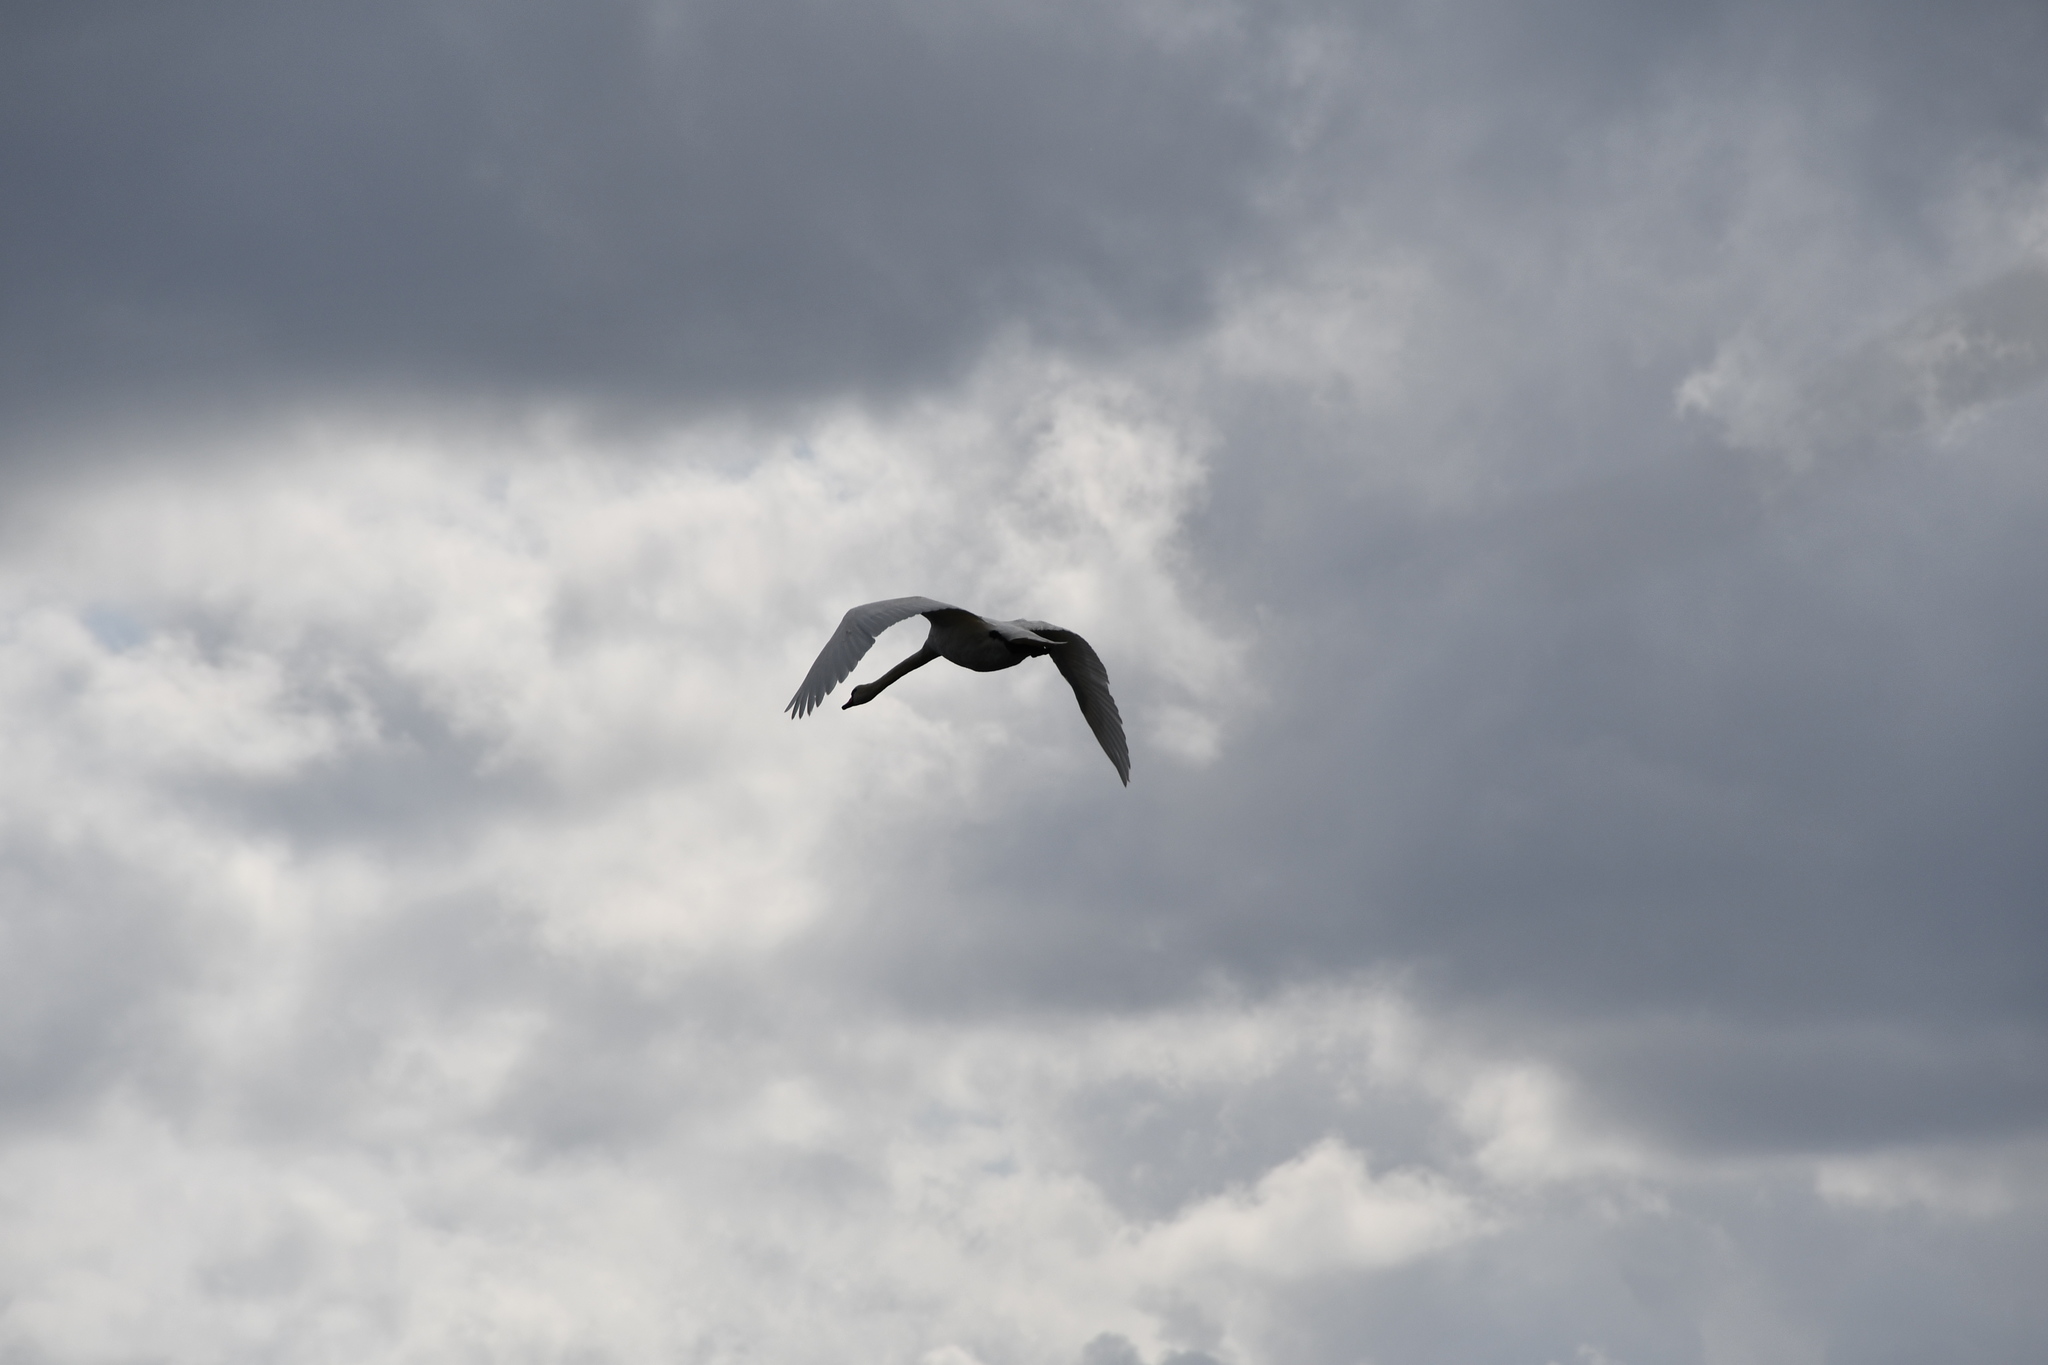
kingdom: Animalia
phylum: Chordata
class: Aves
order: Anseriformes
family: Anatidae
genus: Cygnus
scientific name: Cygnus olor
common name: Mute swan
